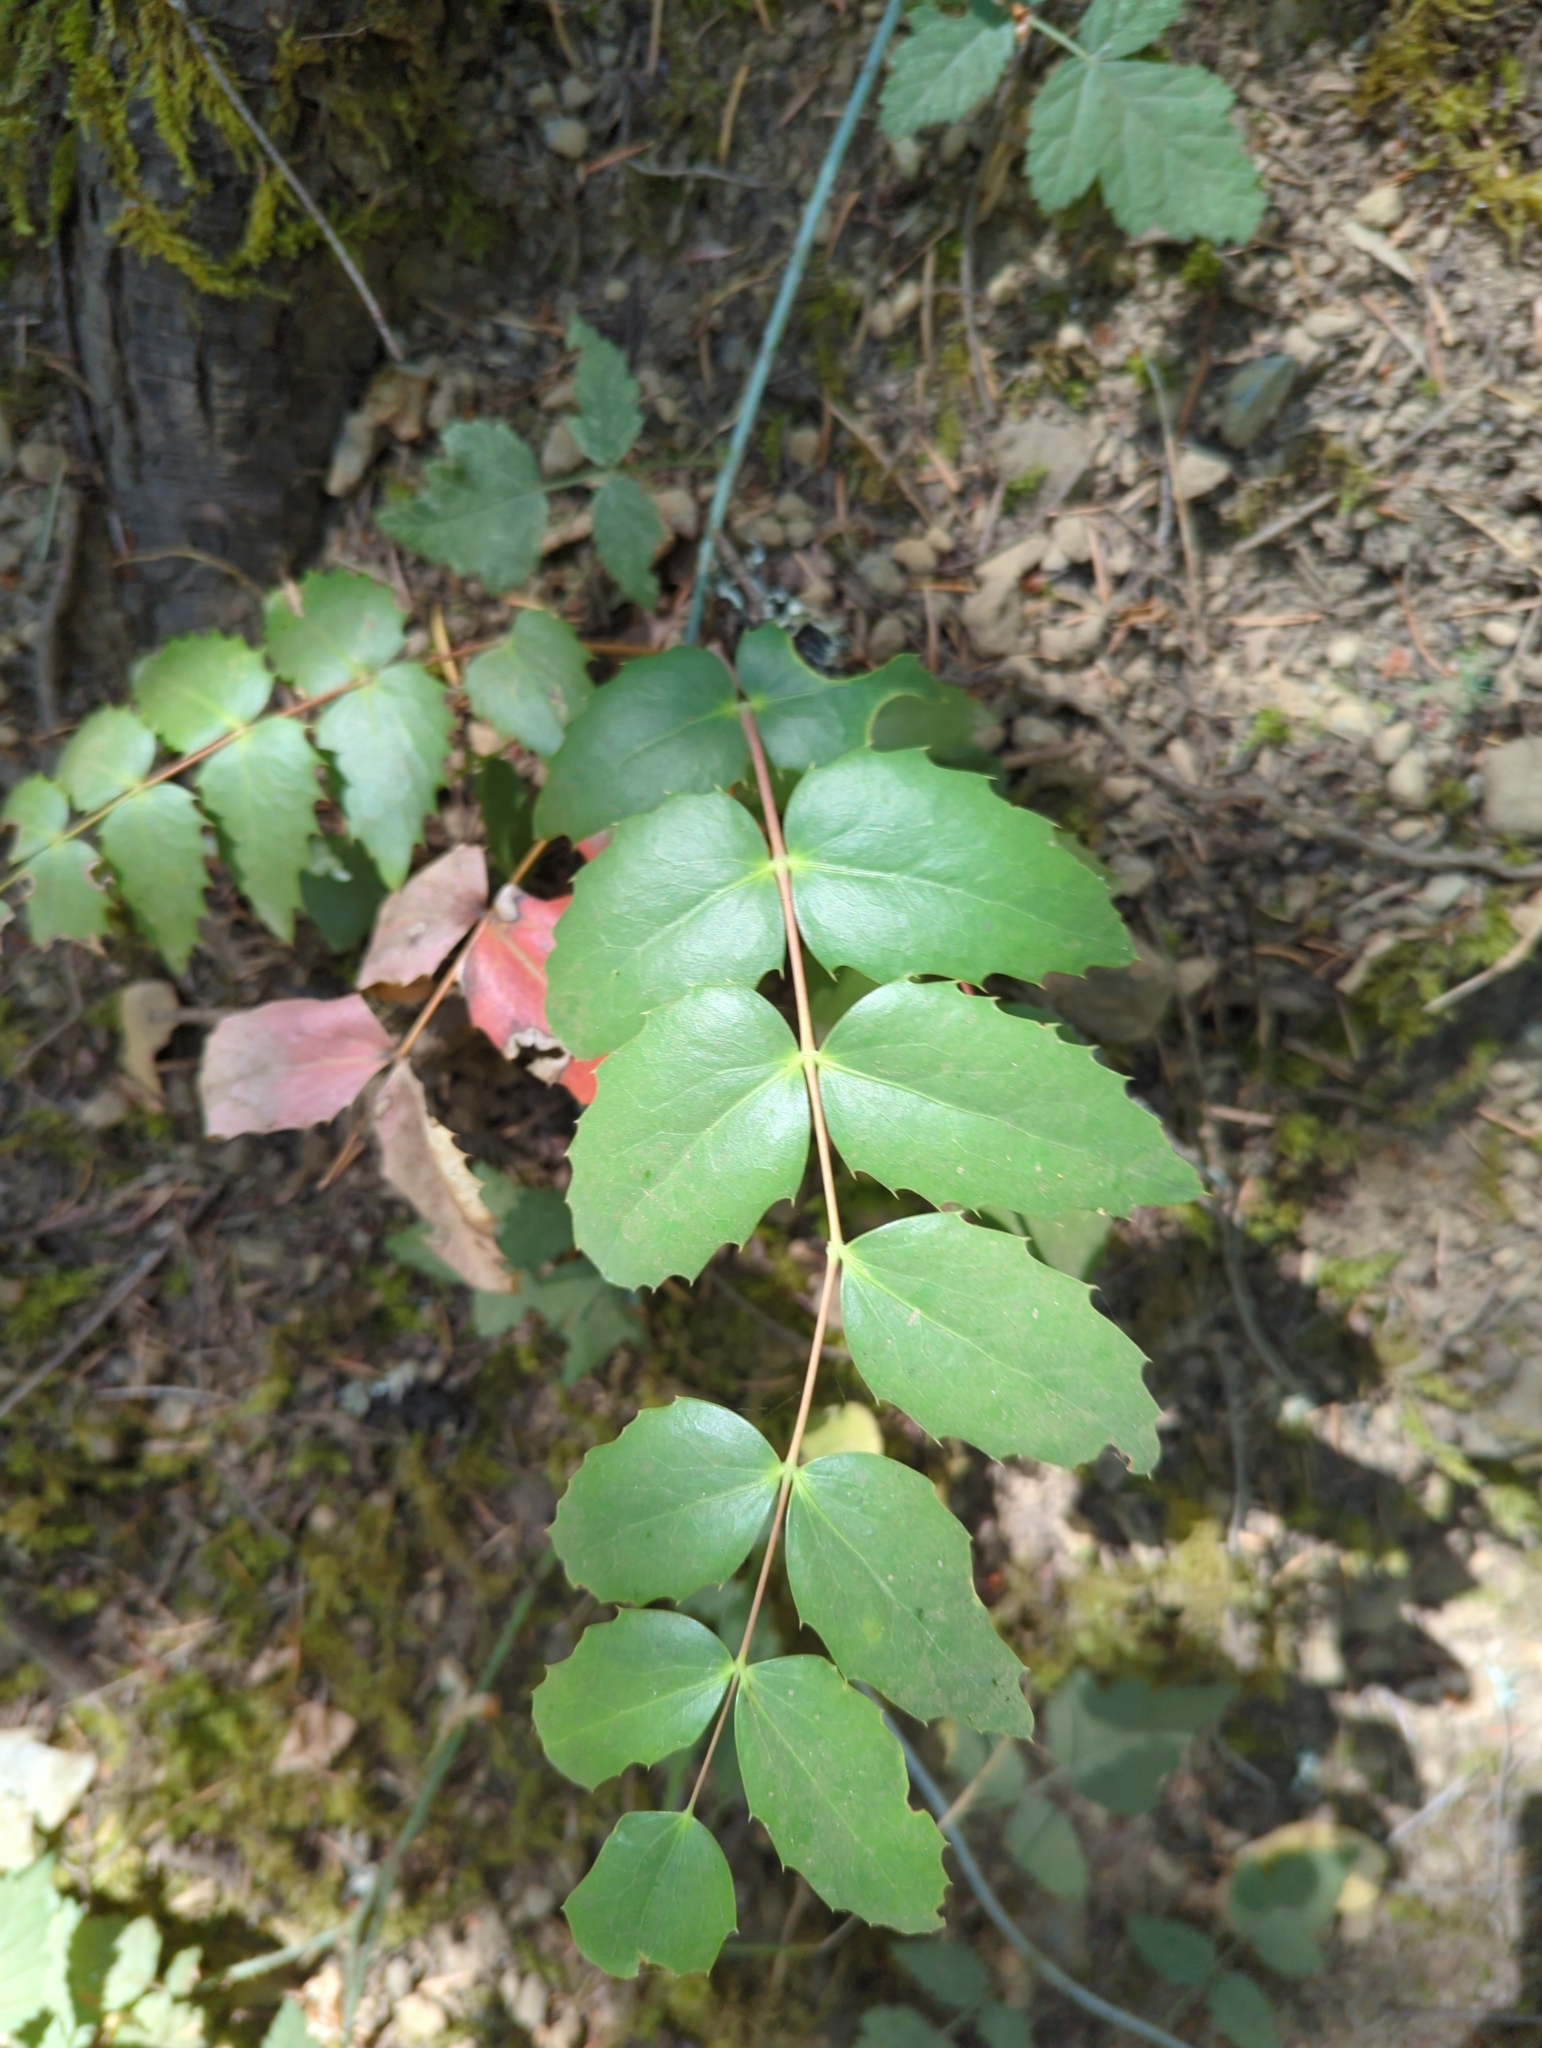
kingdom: Plantae
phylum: Tracheophyta
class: Magnoliopsida
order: Ranunculales
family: Berberidaceae
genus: Mahonia
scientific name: Mahonia nervosa
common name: Cascade oregon-grape
